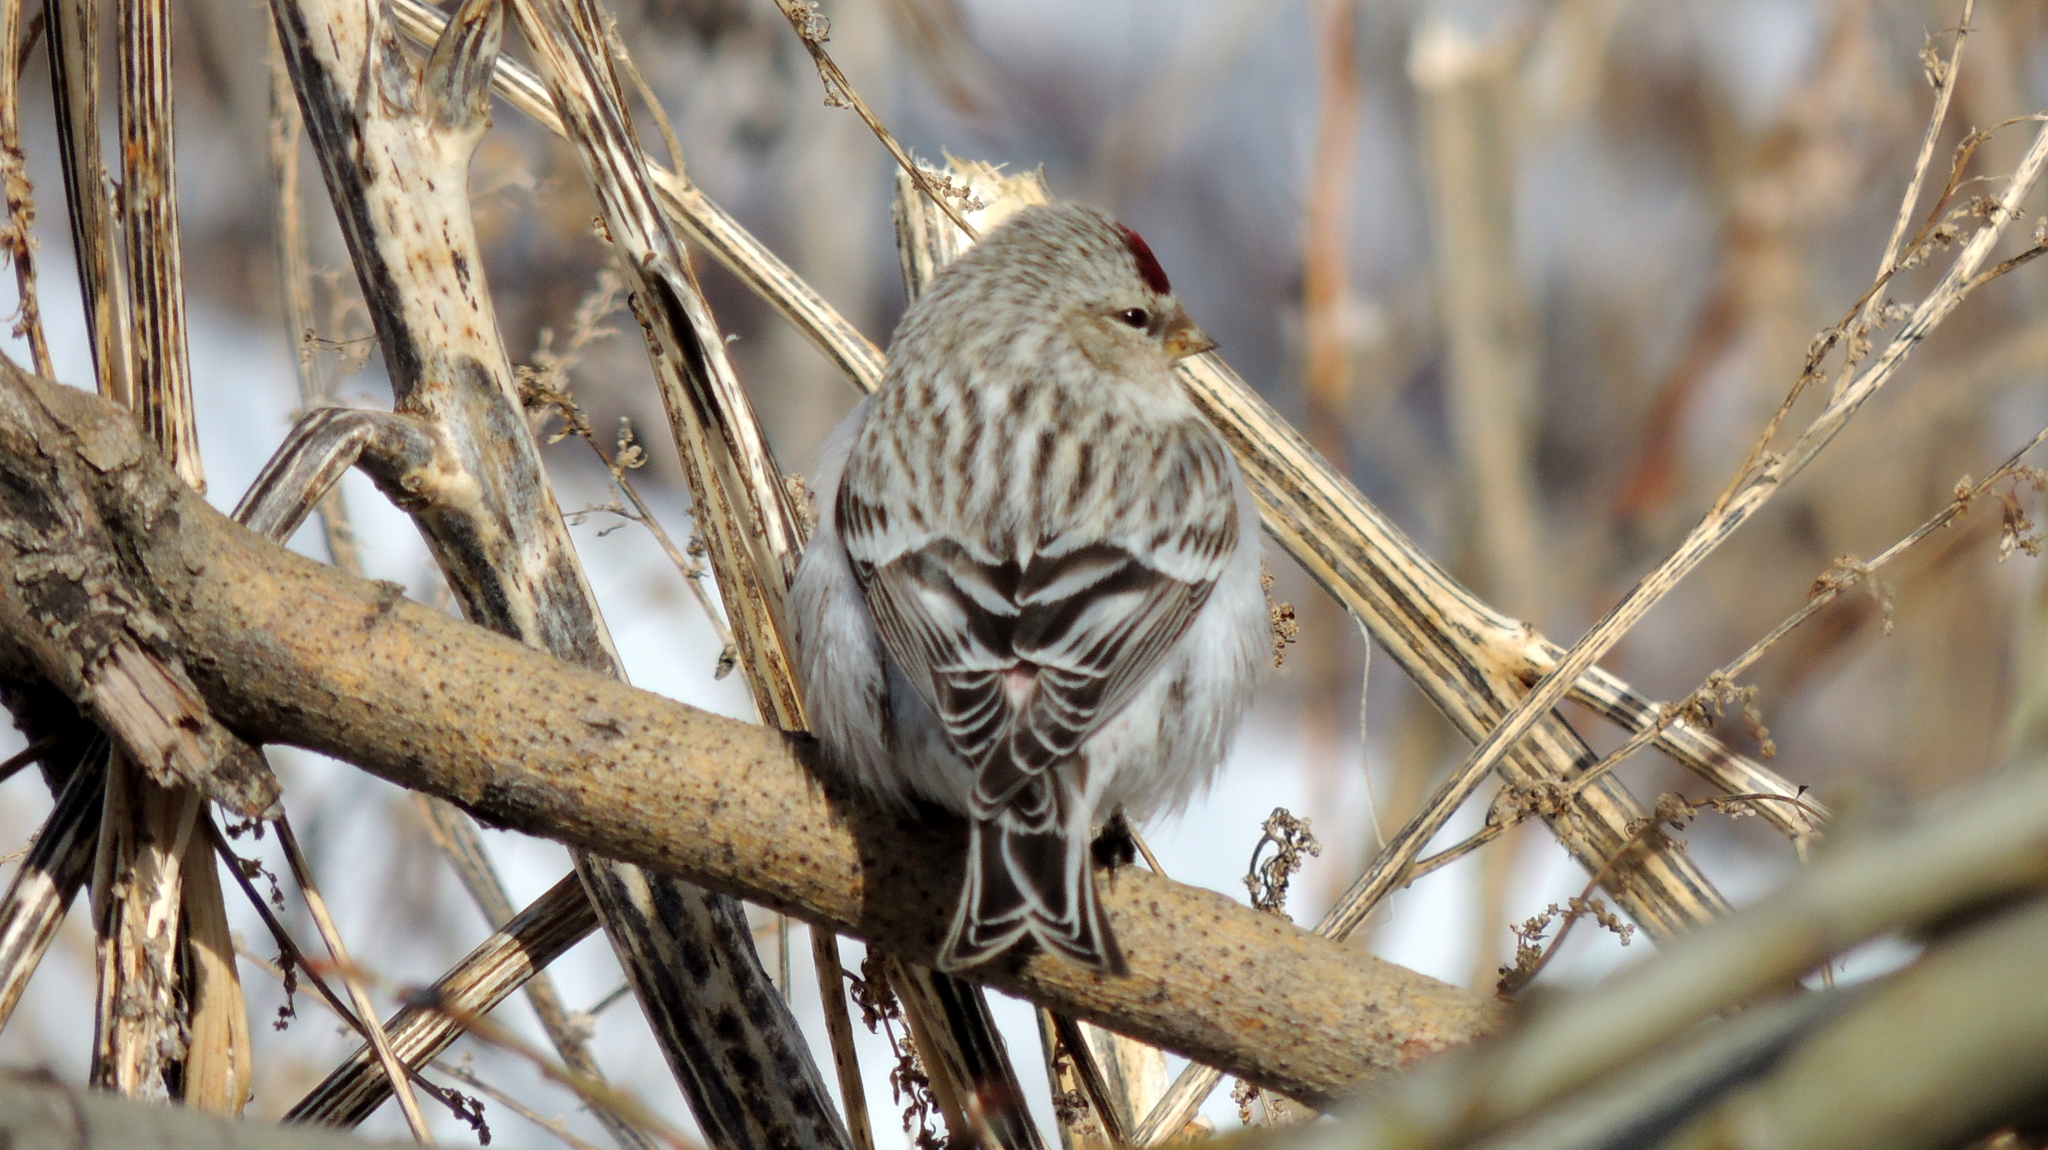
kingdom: Animalia
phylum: Chordata
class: Aves
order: Passeriformes
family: Fringillidae
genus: Acanthis
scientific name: Acanthis hornemanni
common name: Arctic redpoll
